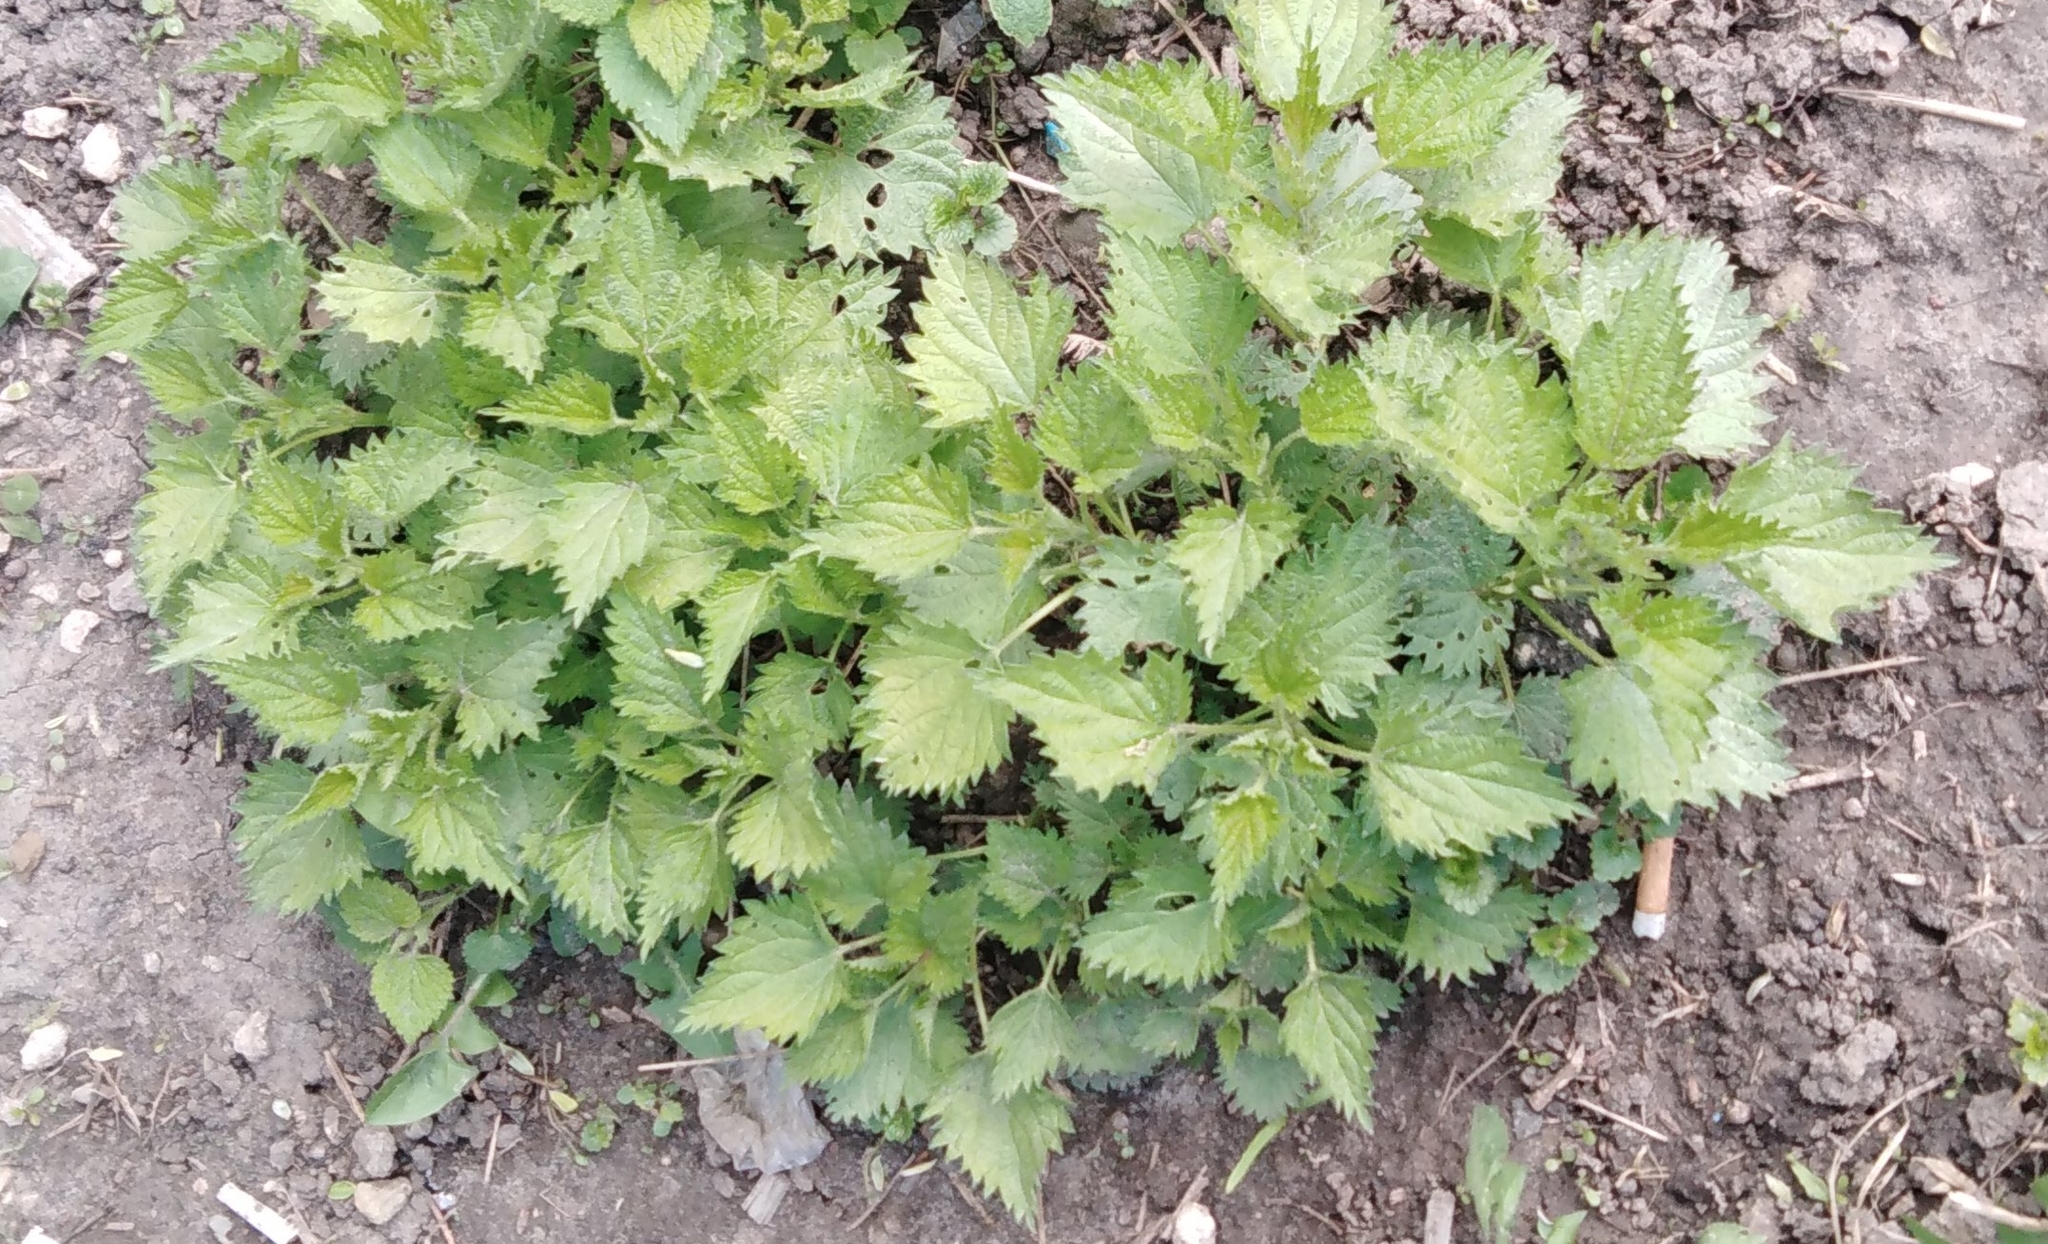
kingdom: Plantae
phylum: Tracheophyta
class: Magnoliopsida
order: Rosales
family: Urticaceae
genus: Urtica
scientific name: Urtica dioica
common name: Common nettle
